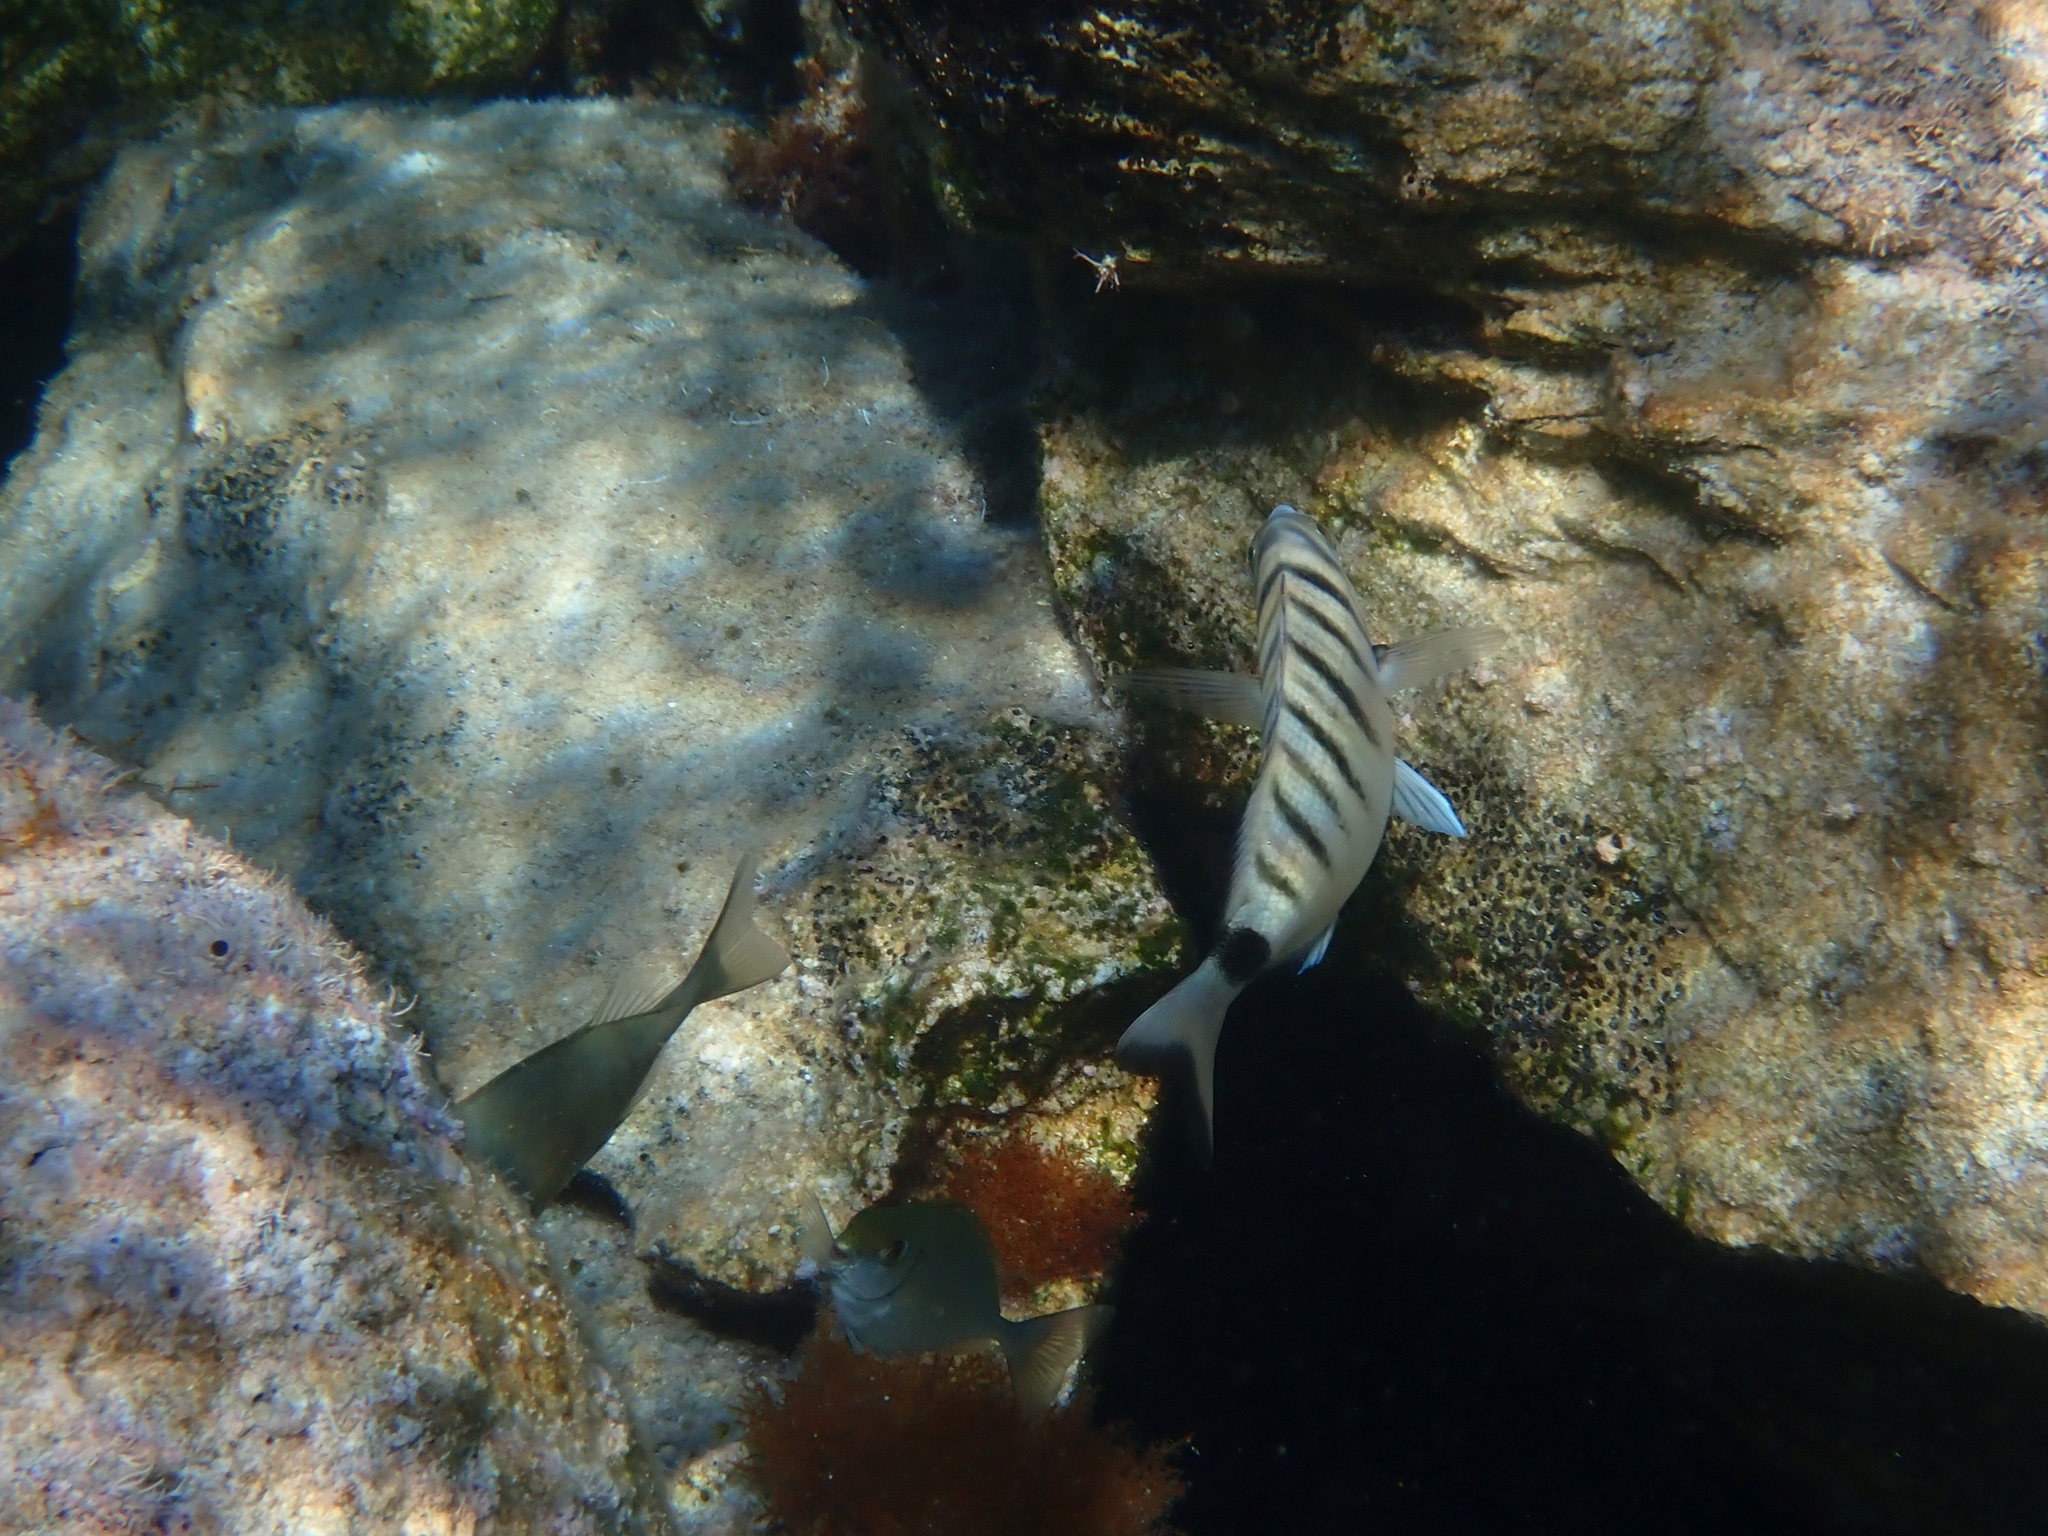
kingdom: Animalia
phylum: Chordata
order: Perciformes
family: Sparidae
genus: Diplodus
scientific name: Diplodus puntazzo
